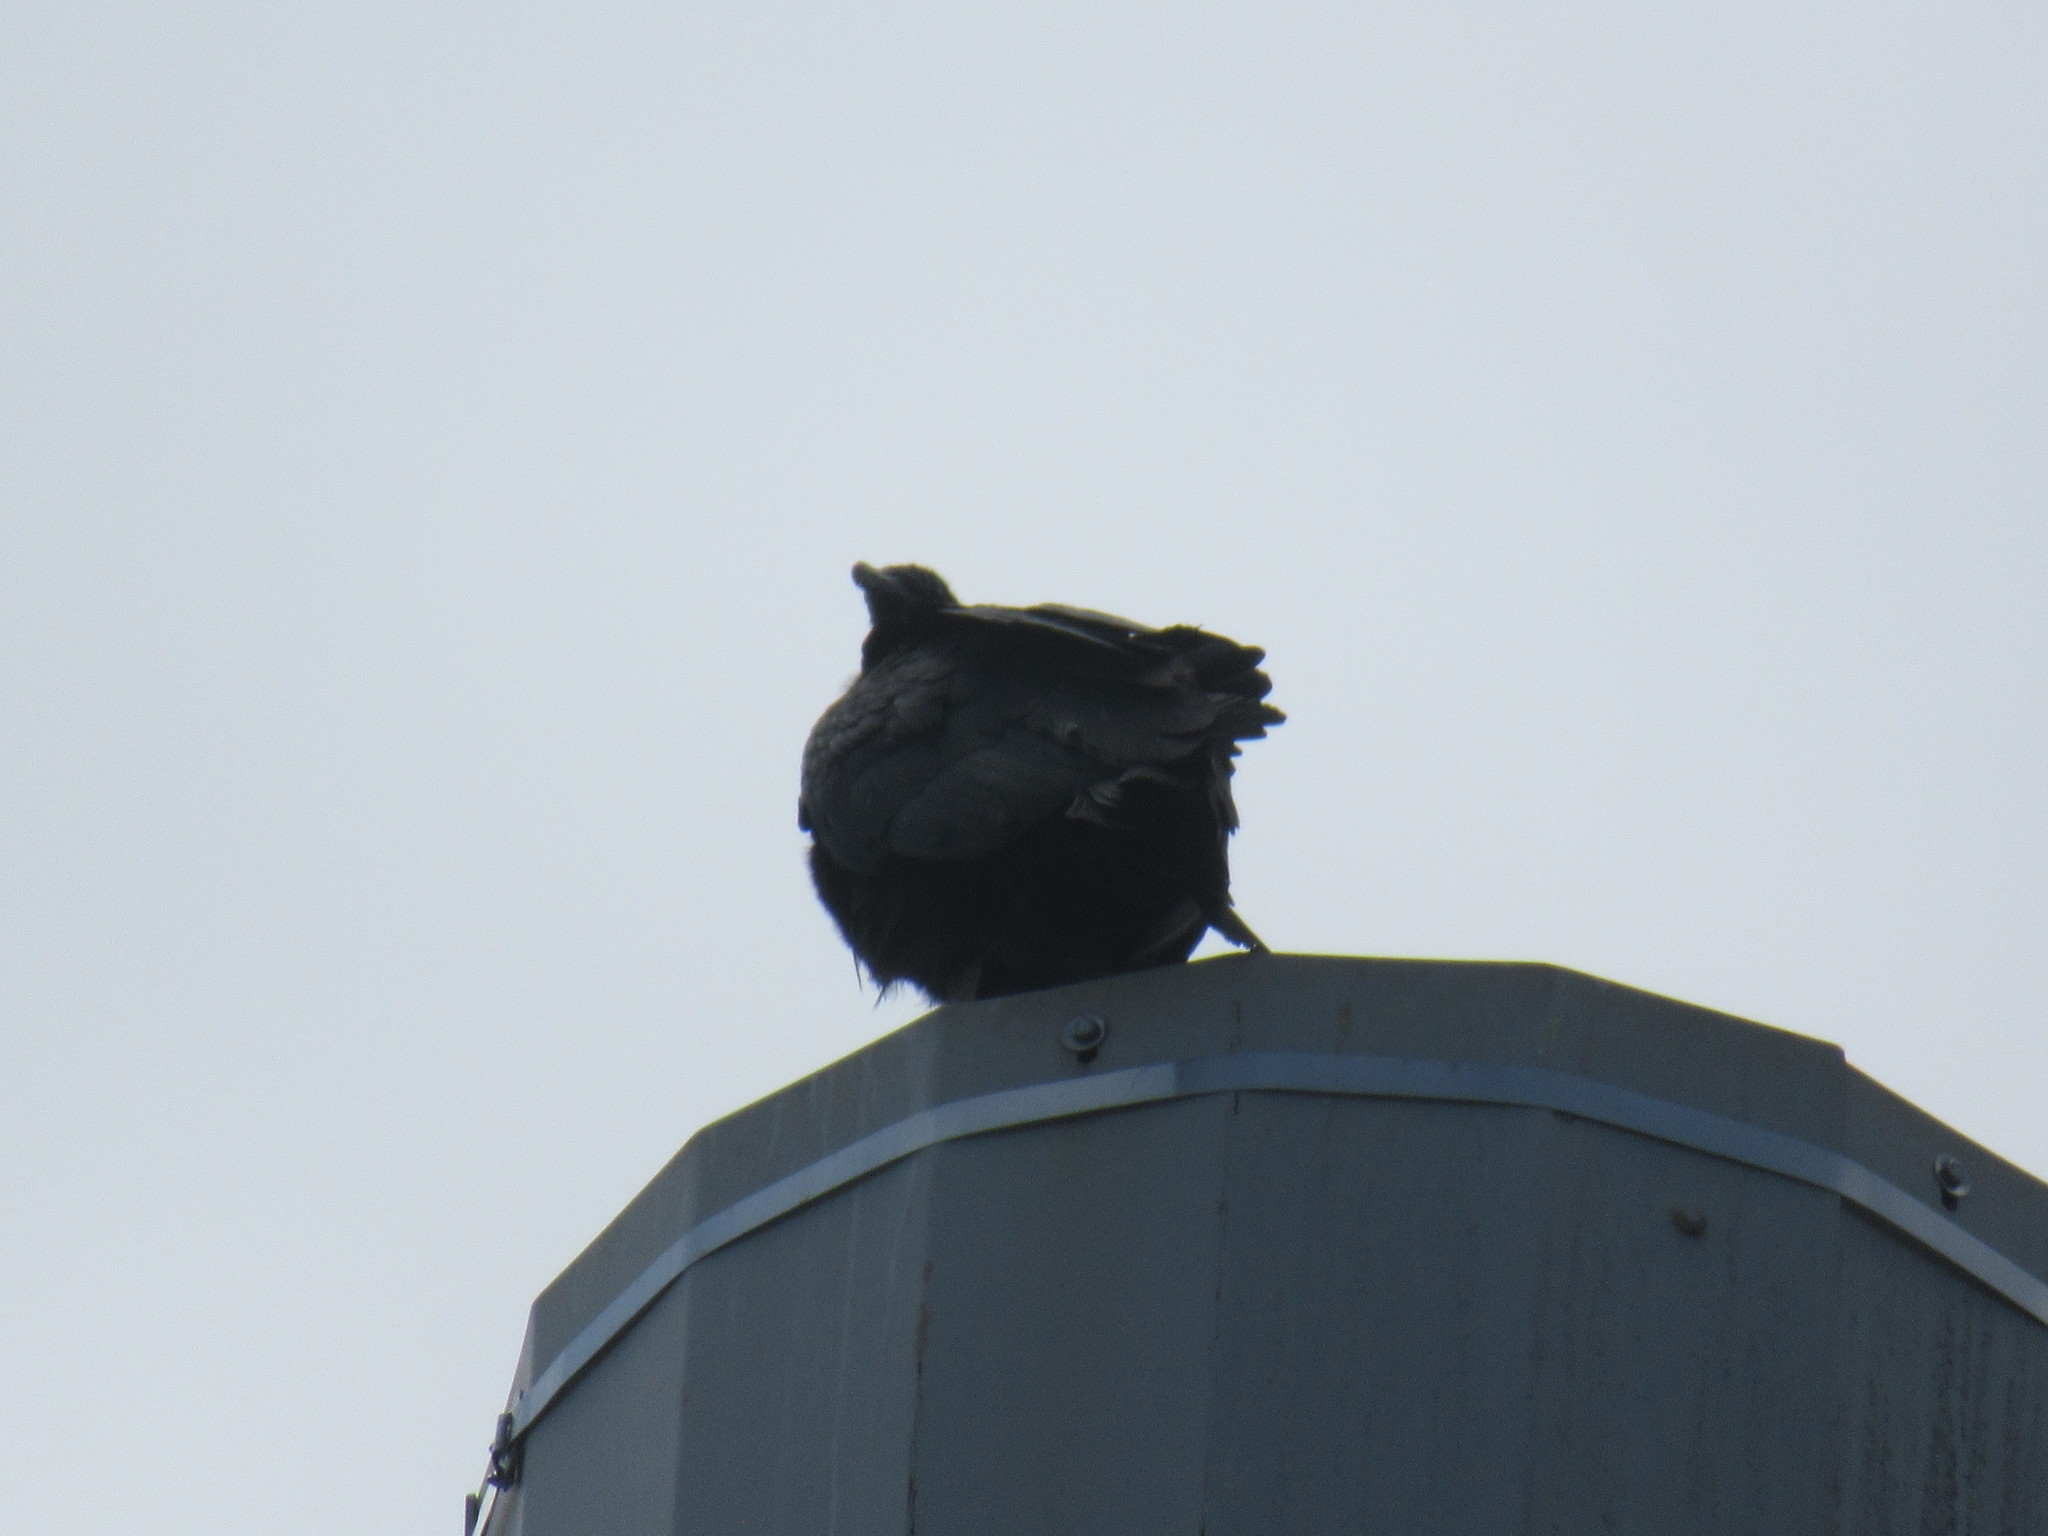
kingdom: Animalia
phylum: Chordata
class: Aves
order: Accipitriformes
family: Cathartidae
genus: Coragyps
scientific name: Coragyps atratus
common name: Black vulture
